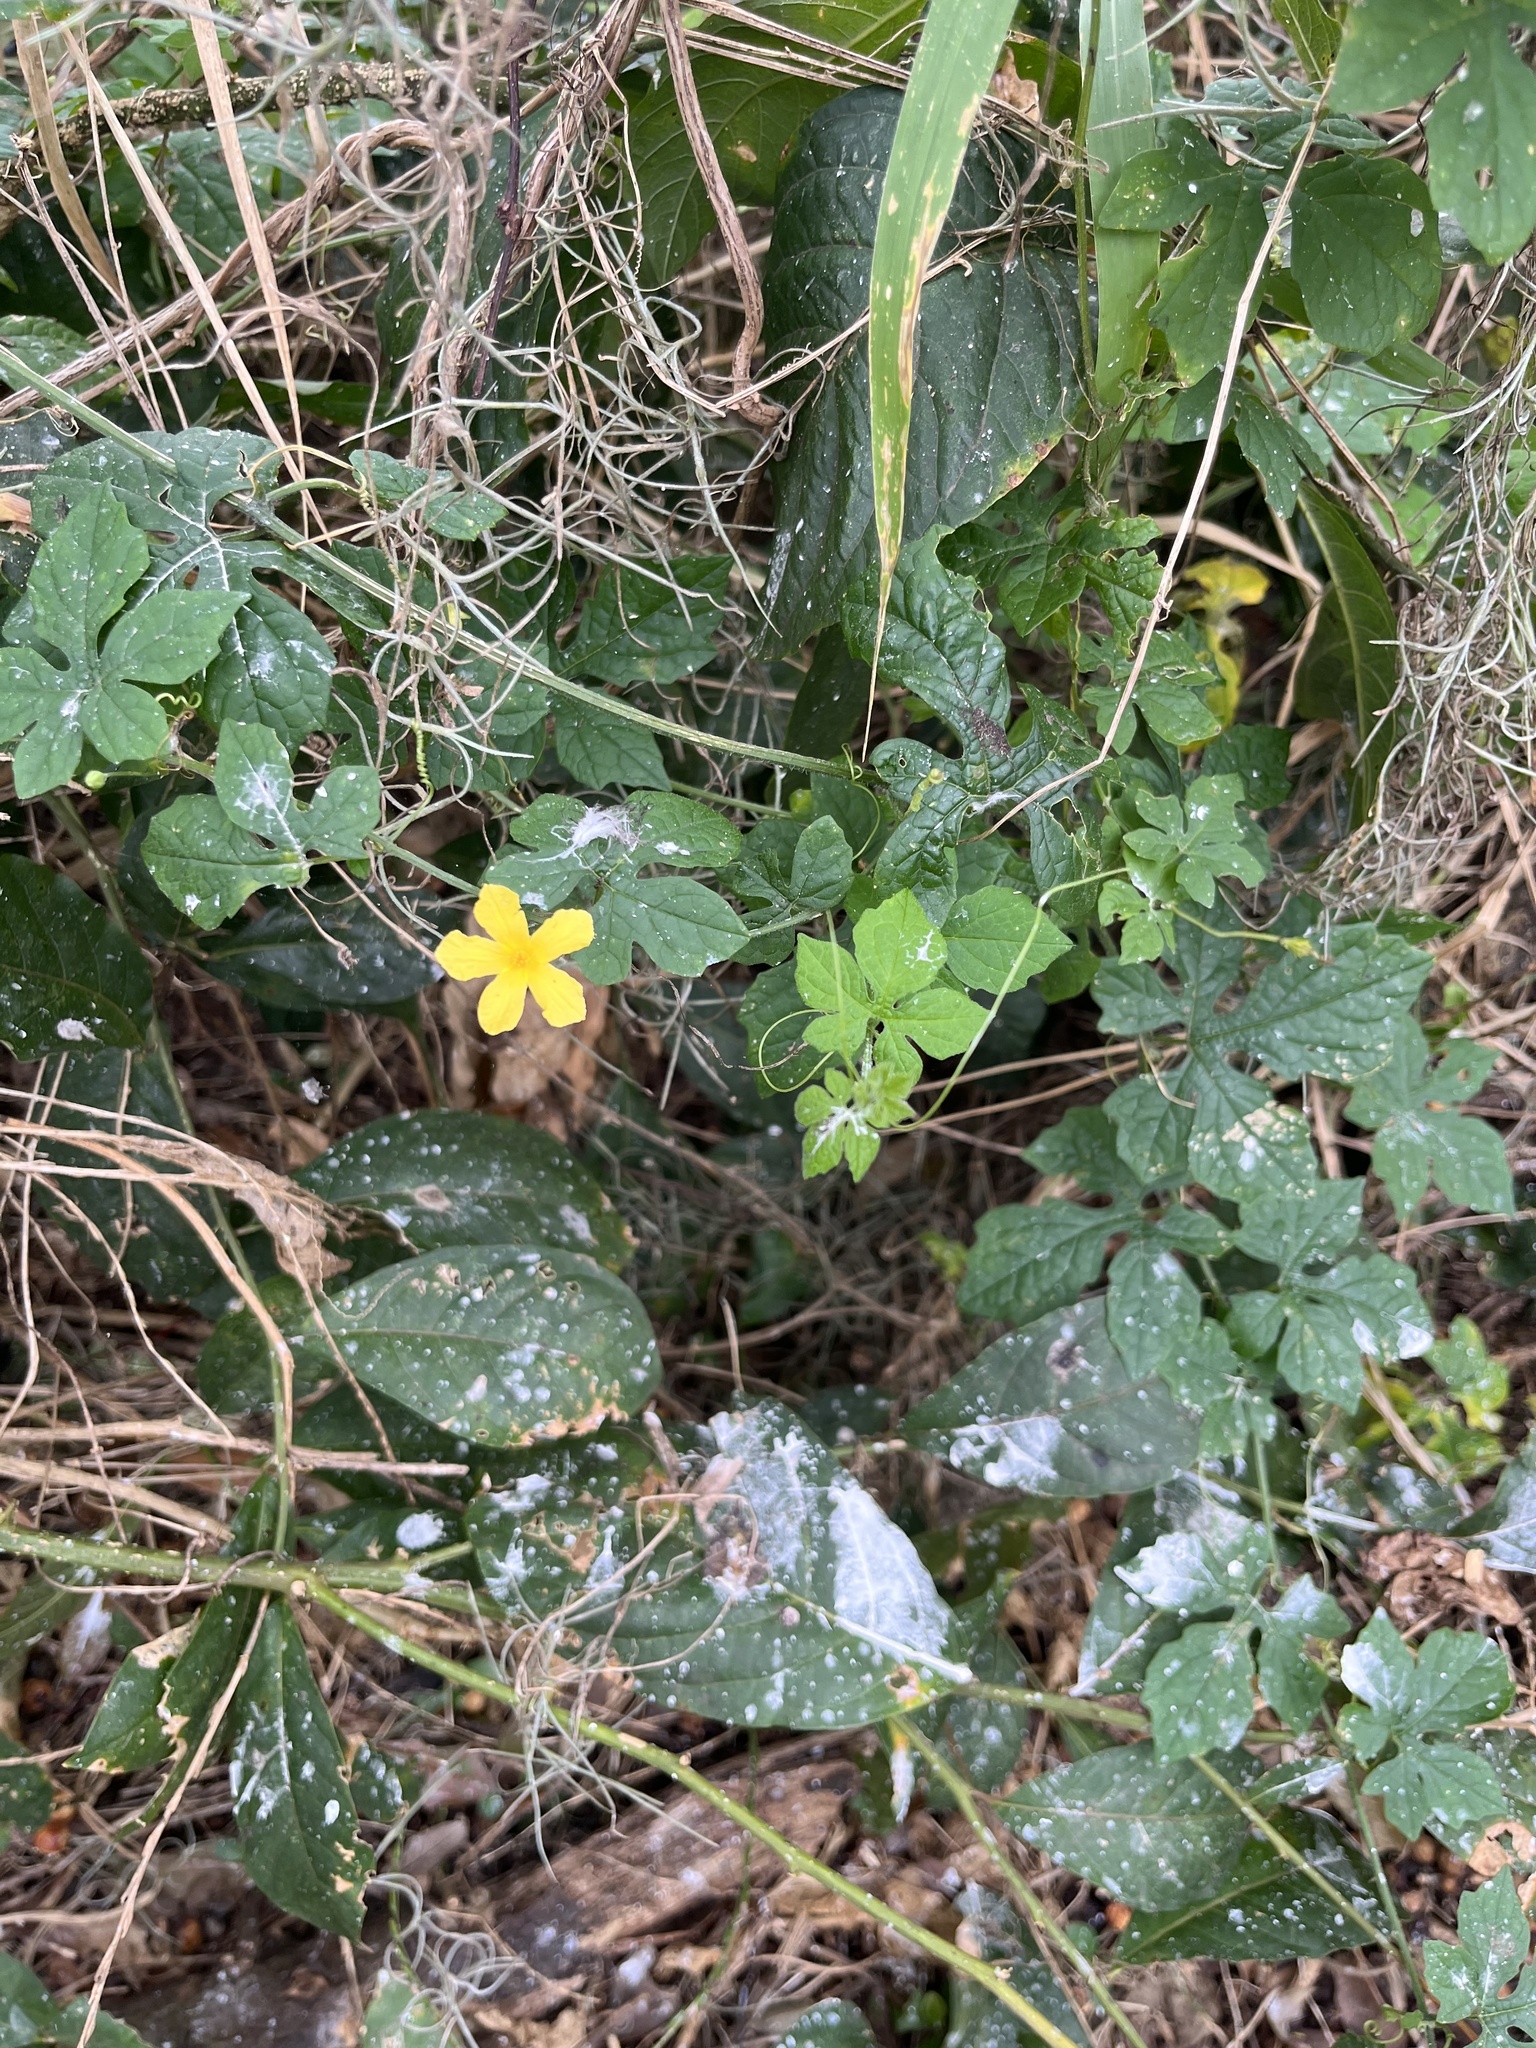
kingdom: Plantae
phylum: Tracheophyta
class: Magnoliopsida
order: Cucurbitales
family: Cucurbitaceae
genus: Momordica
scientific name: Momordica charantia
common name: Balsampear
